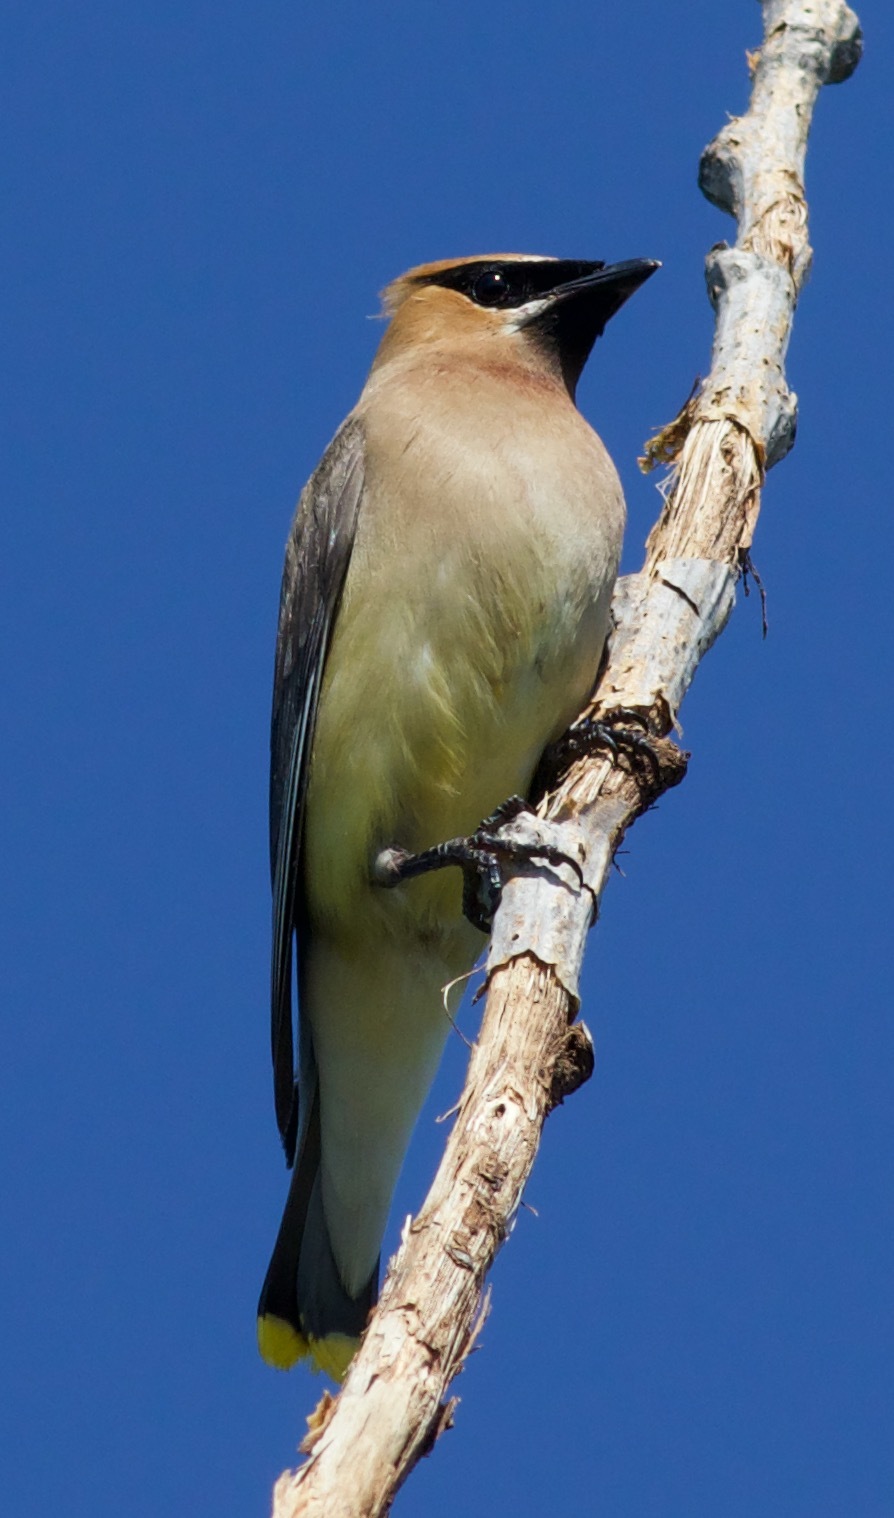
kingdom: Animalia
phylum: Chordata
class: Aves
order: Passeriformes
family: Bombycillidae
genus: Bombycilla
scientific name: Bombycilla cedrorum
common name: Cedar waxwing
